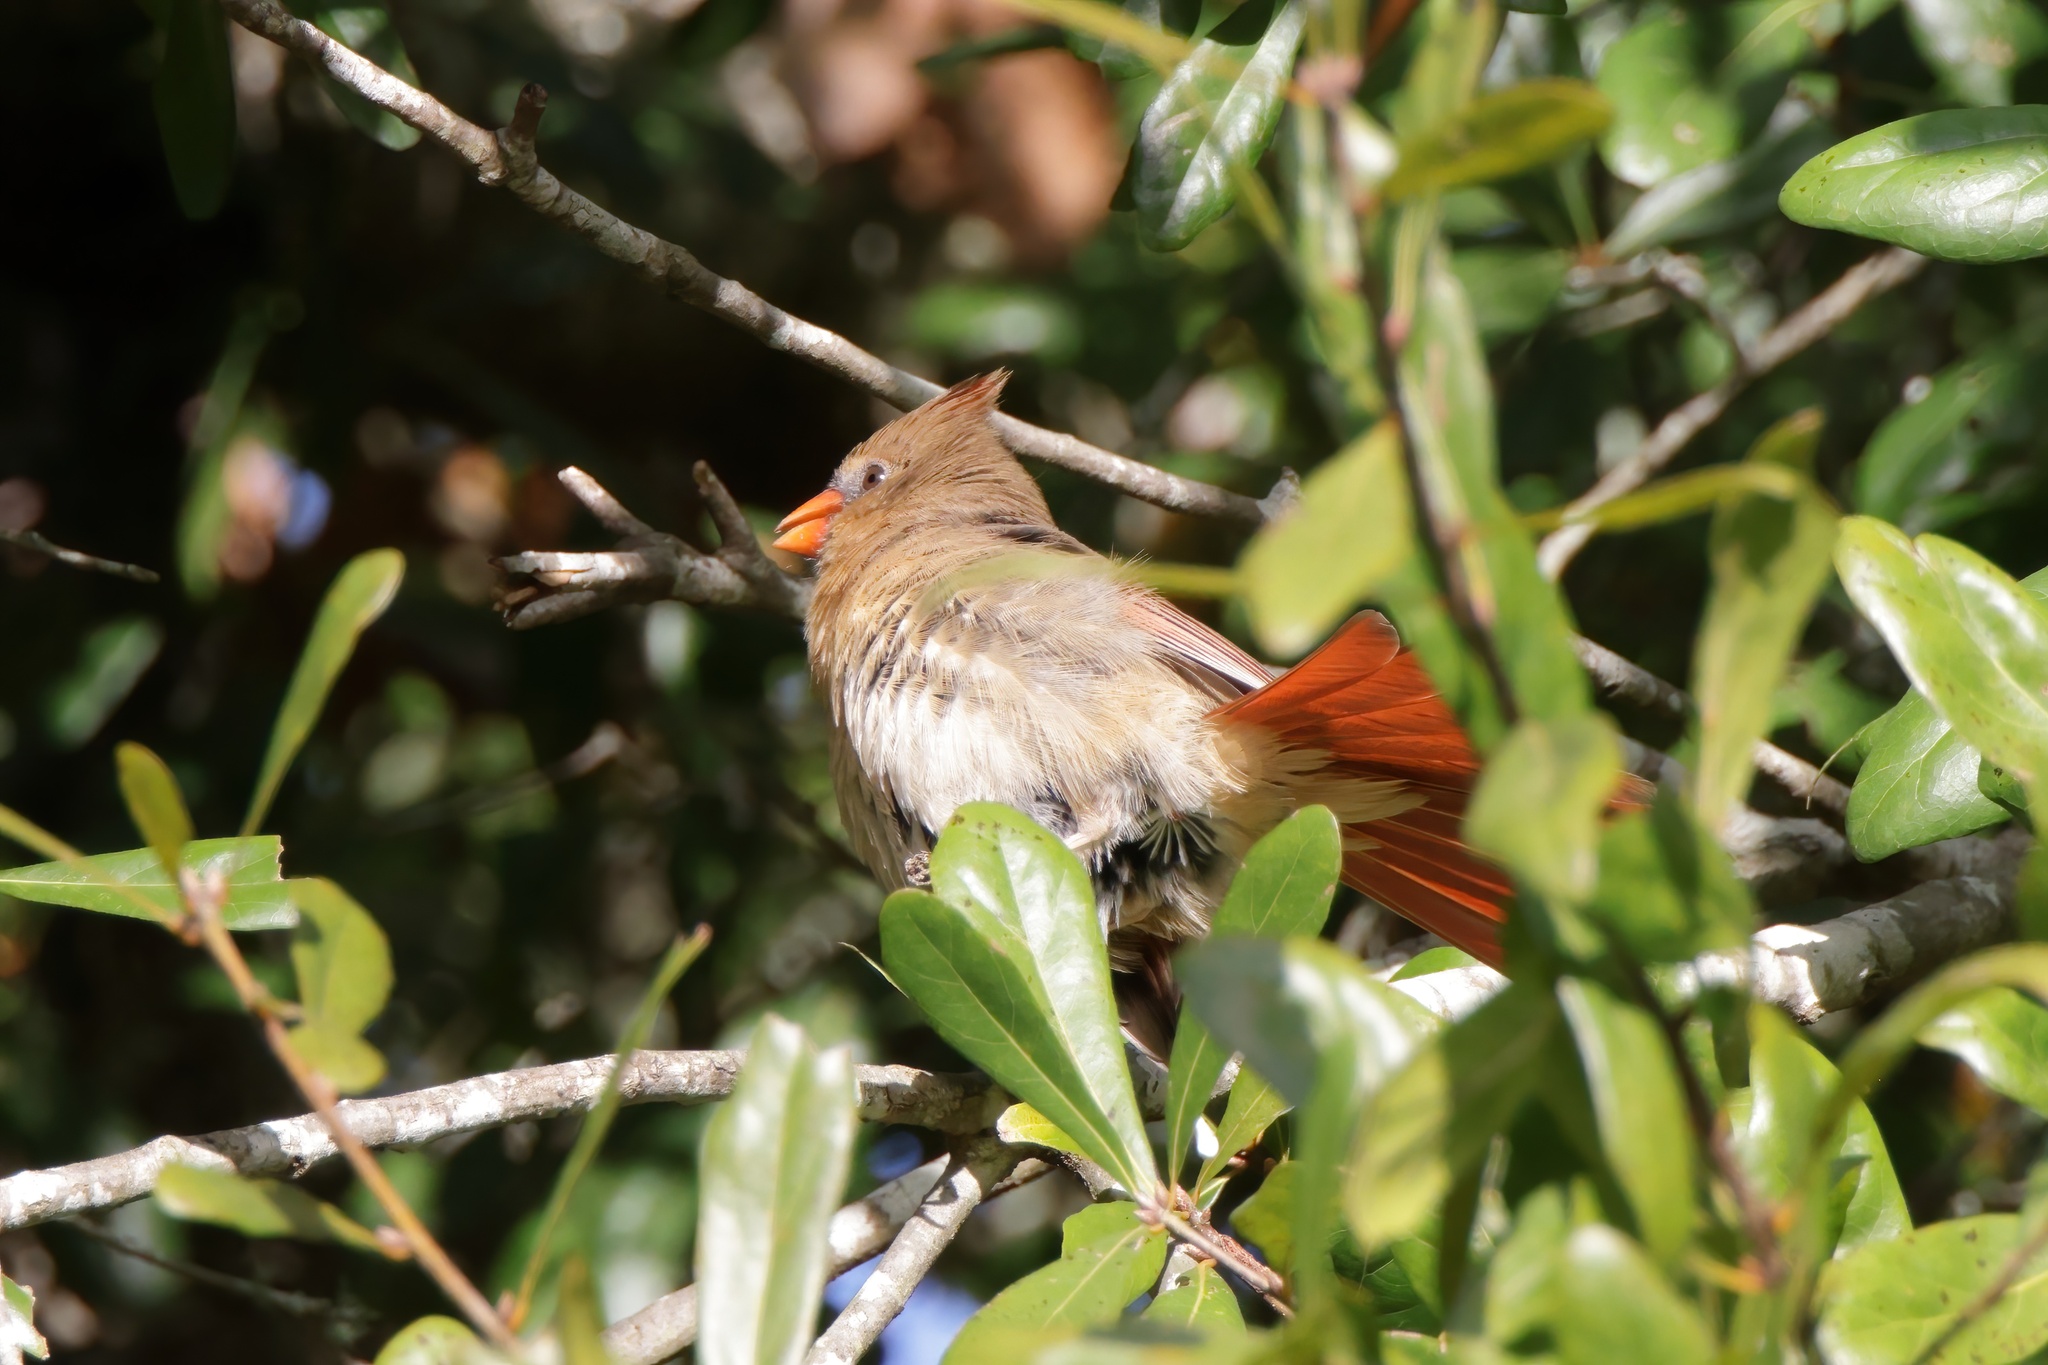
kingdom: Animalia
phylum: Chordata
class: Aves
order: Passeriformes
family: Cardinalidae
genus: Cardinalis
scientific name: Cardinalis cardinalis
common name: Northern cardinal
